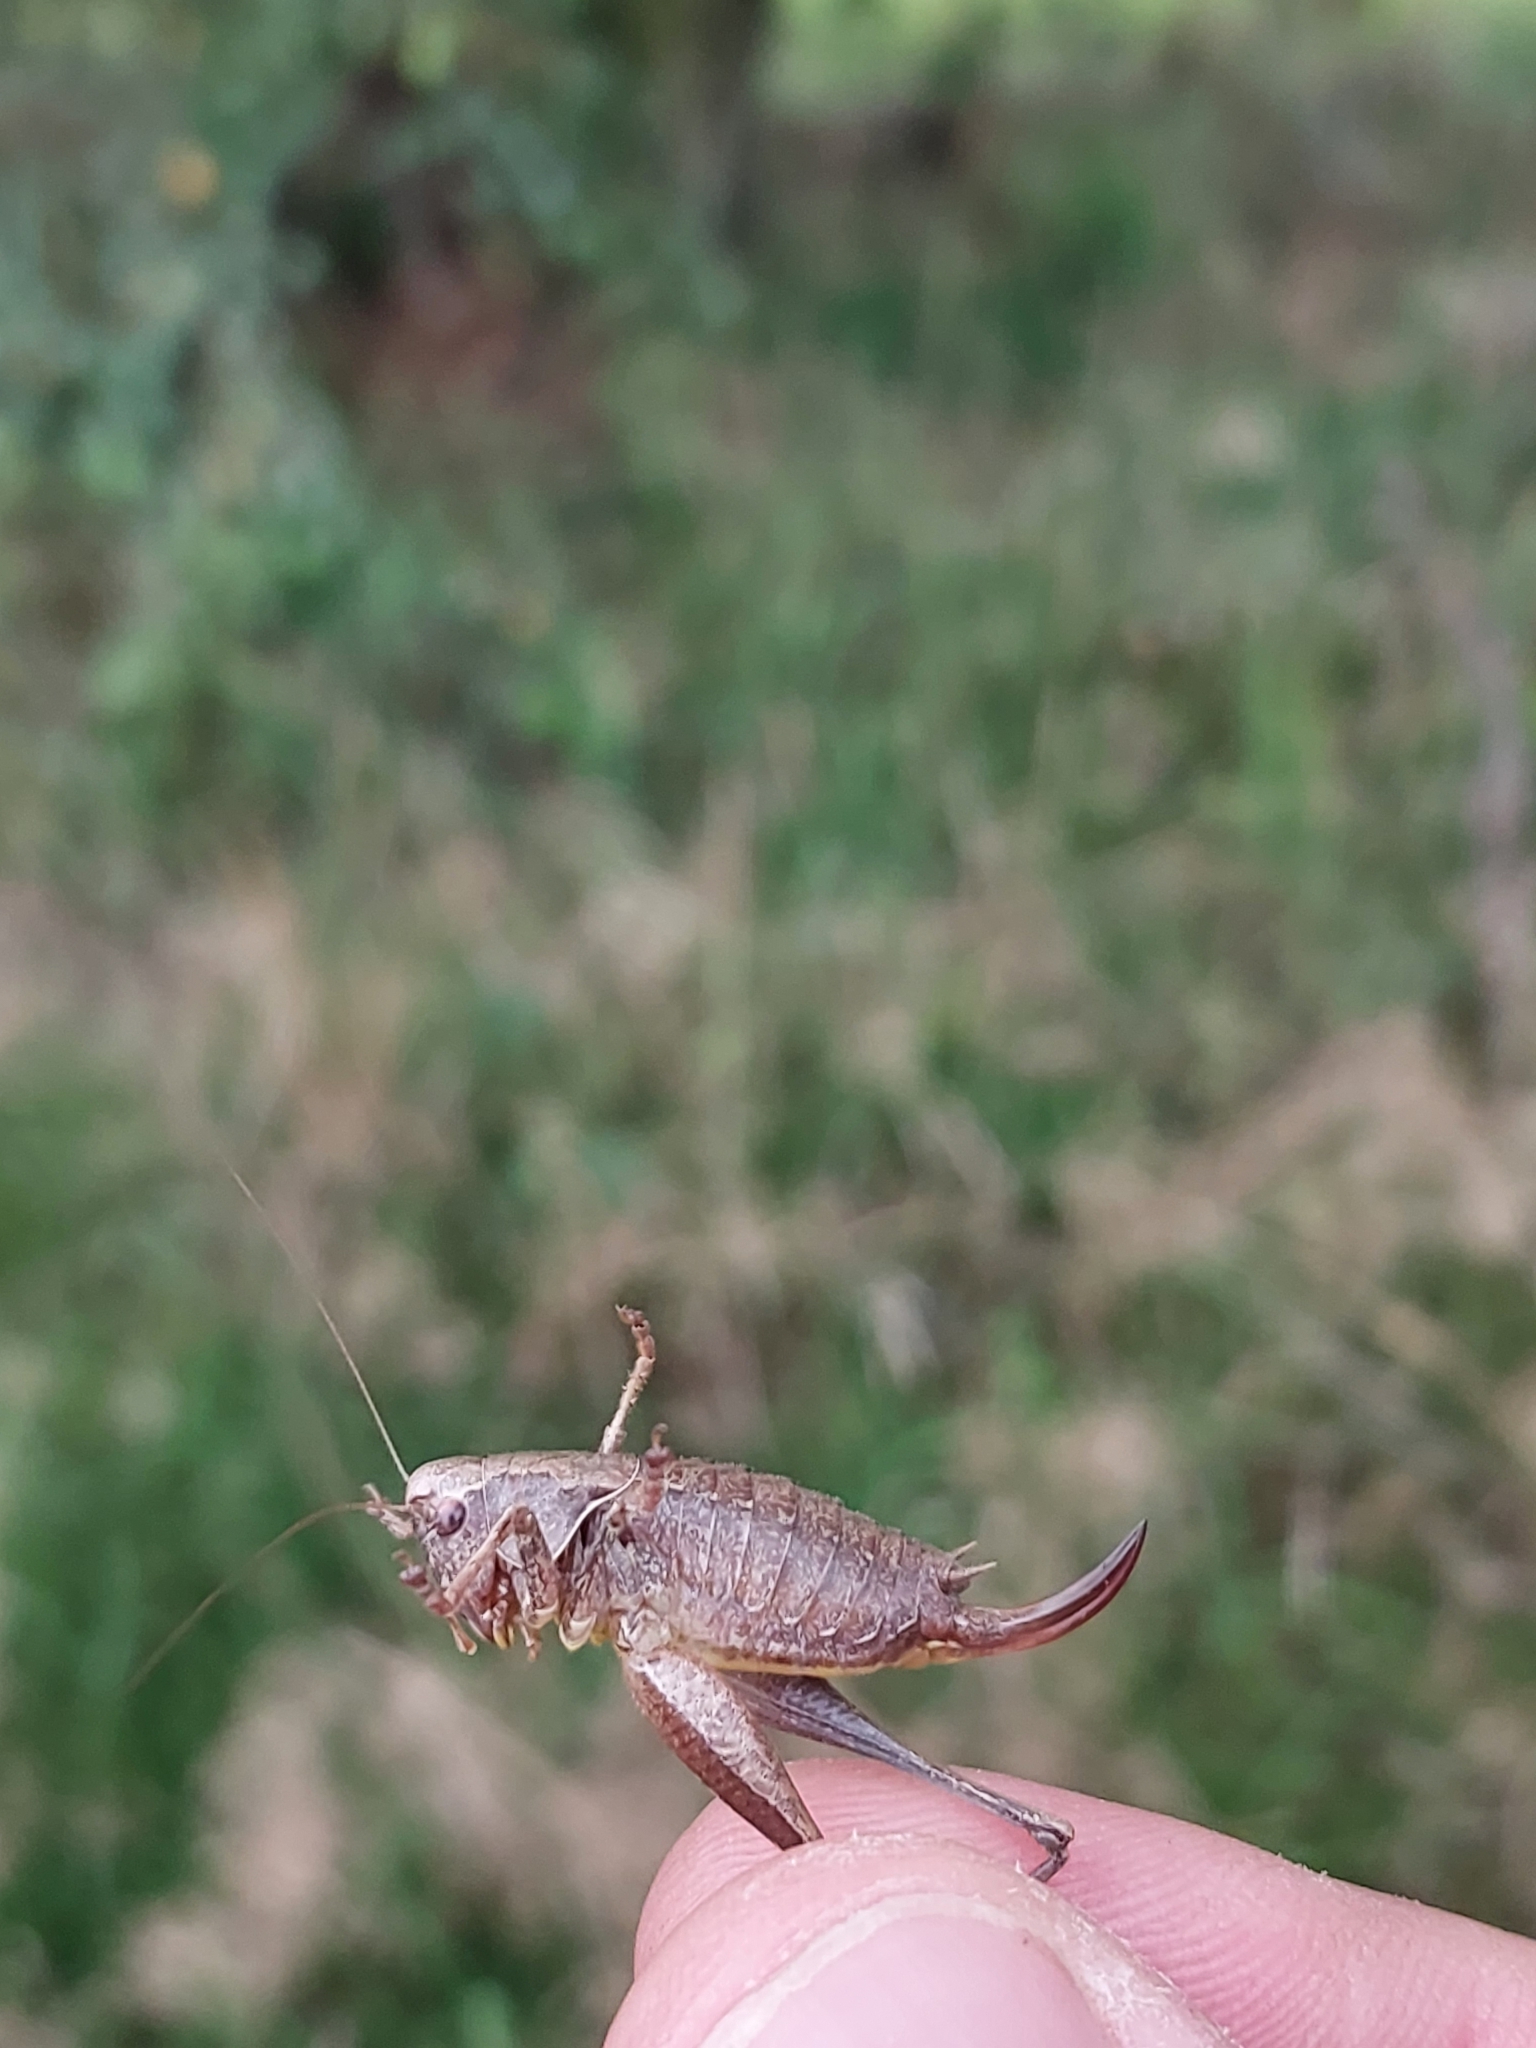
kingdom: Animalia
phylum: Arthropoda
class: Insecta
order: Orthoptera
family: Tettigoniidae
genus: Pholidoptera
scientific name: Pholidoptera griseoaptera
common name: Dark bush-cricket
